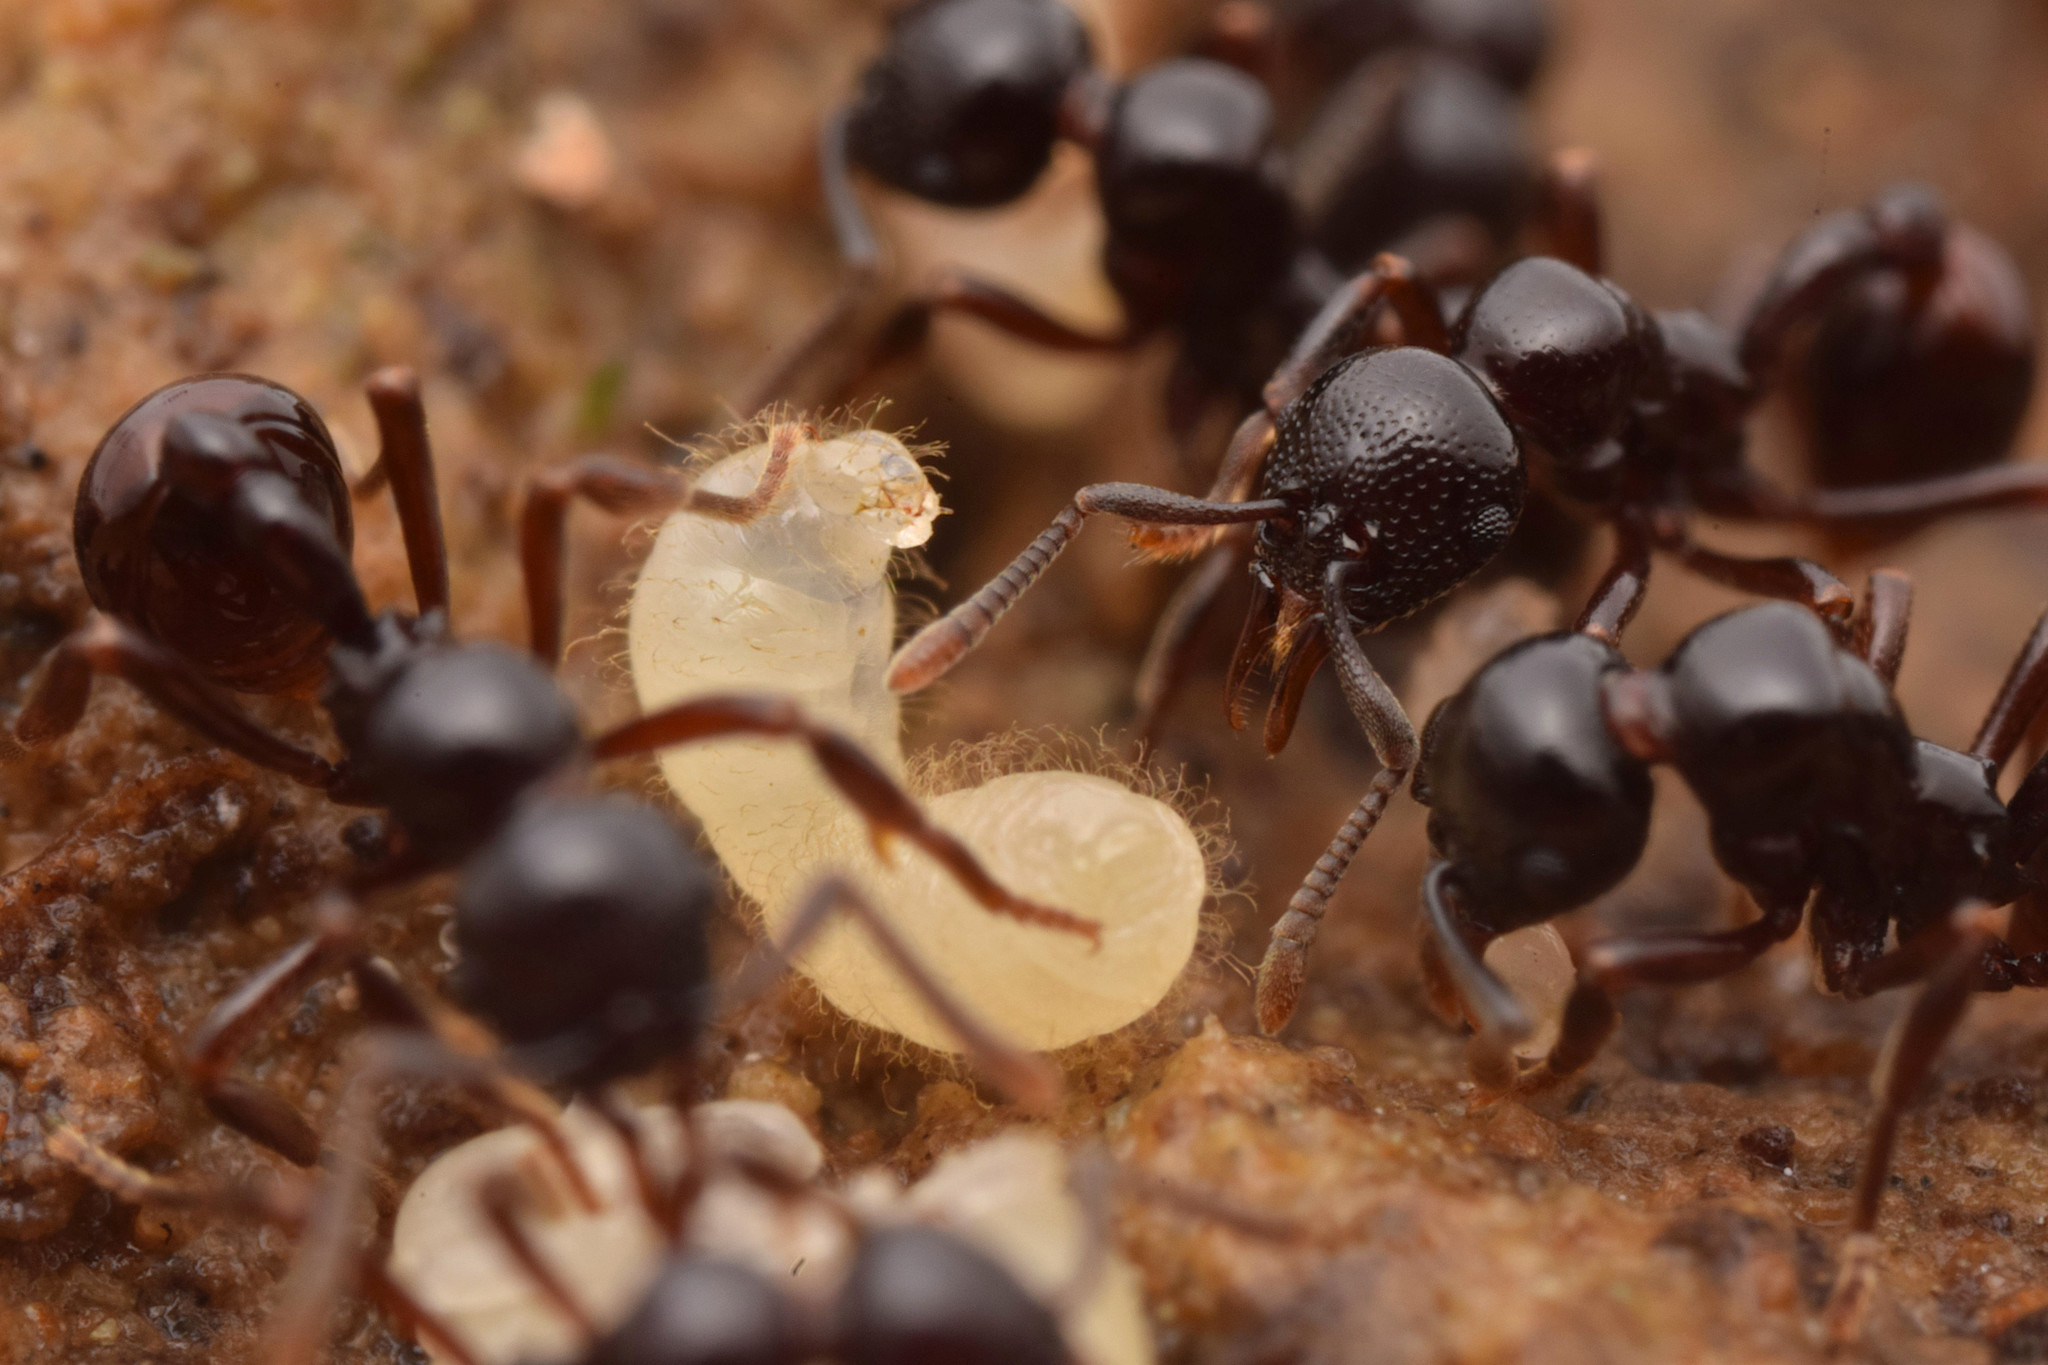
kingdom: Animalia
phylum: Arthropoda
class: Insecta
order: Hymenoptera
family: Formicidae
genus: Lenomyrmex
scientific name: Lenomyrmex foveolatus
